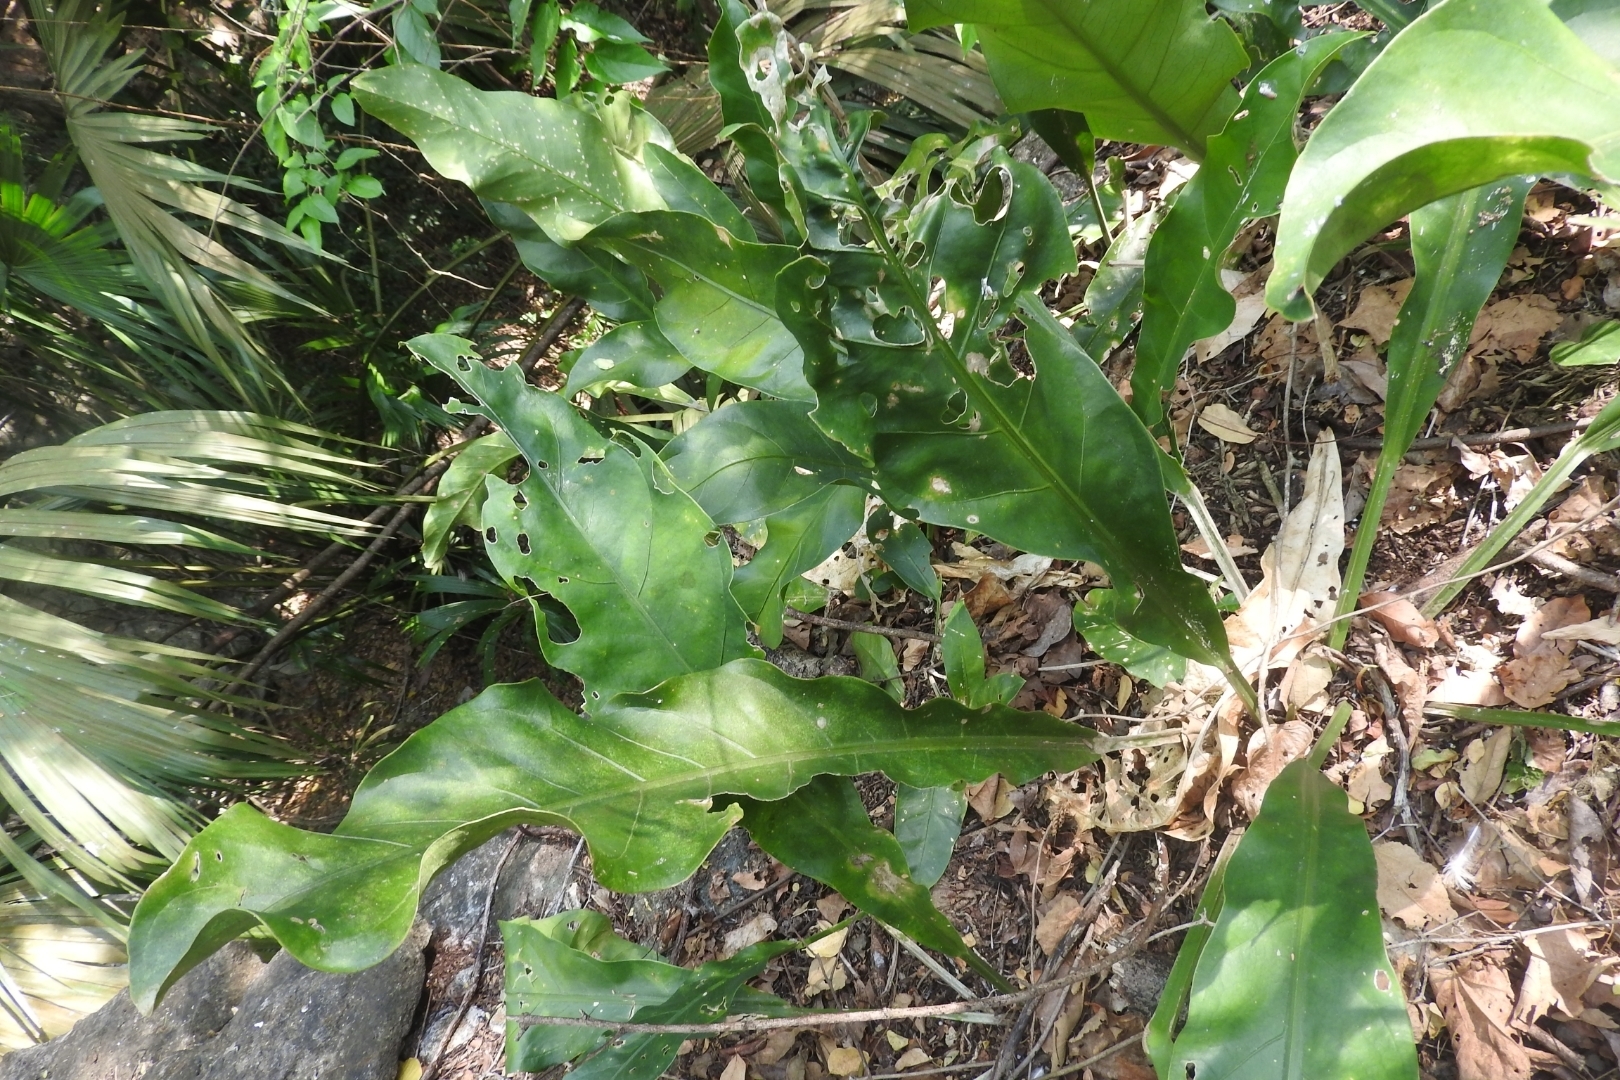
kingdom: Plantae
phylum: Tracheophyta
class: Liliopsida
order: Alismatales
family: Araceae
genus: Anthurium
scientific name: Anthurium schlechtendalii
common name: Laceleaf
